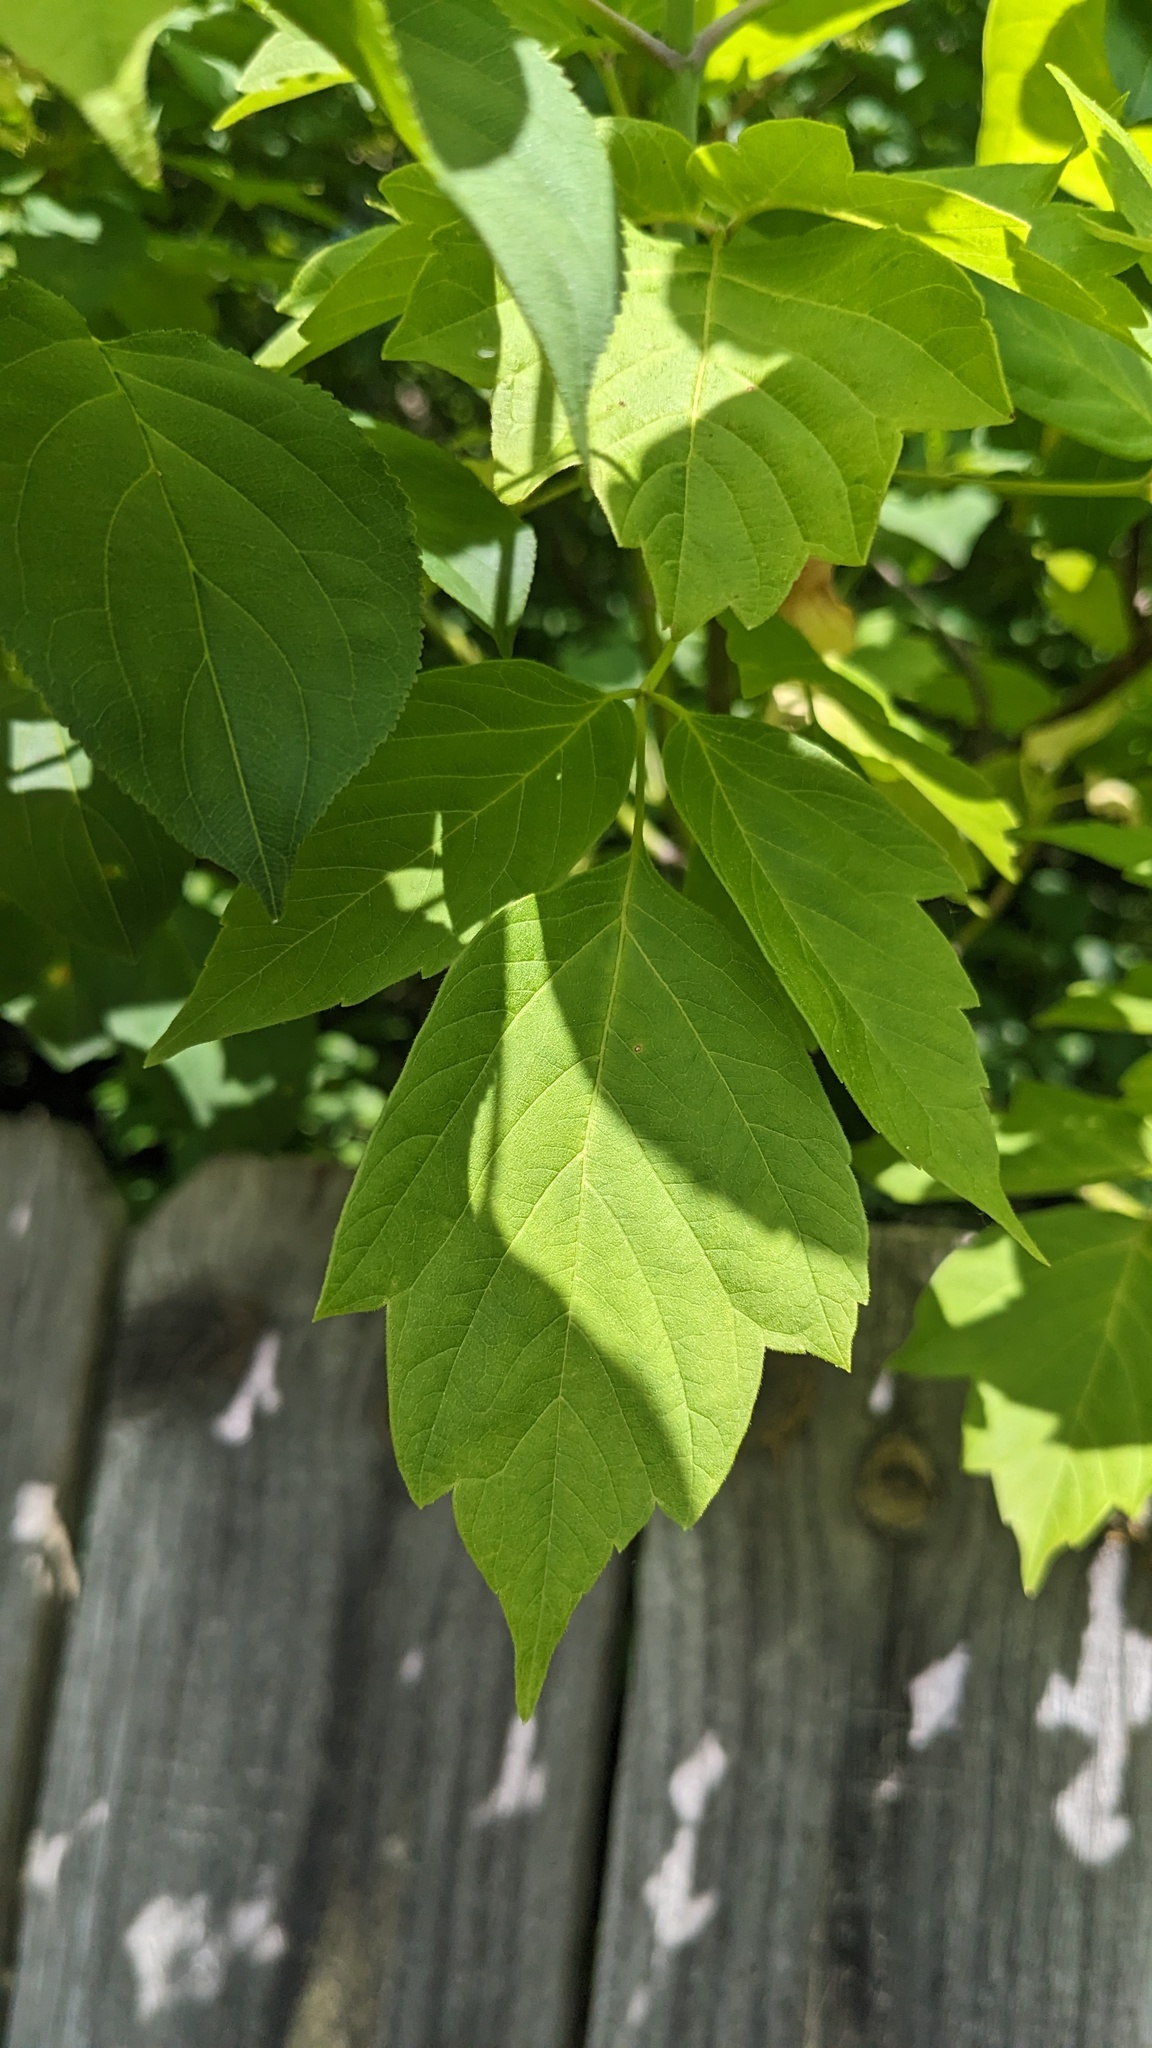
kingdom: Plantae
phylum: Tracheophyta
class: Magnoliopsida
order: Sapindales
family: Sapindaceae
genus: Acer
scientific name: Acer negundo
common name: Ashleaf maple
